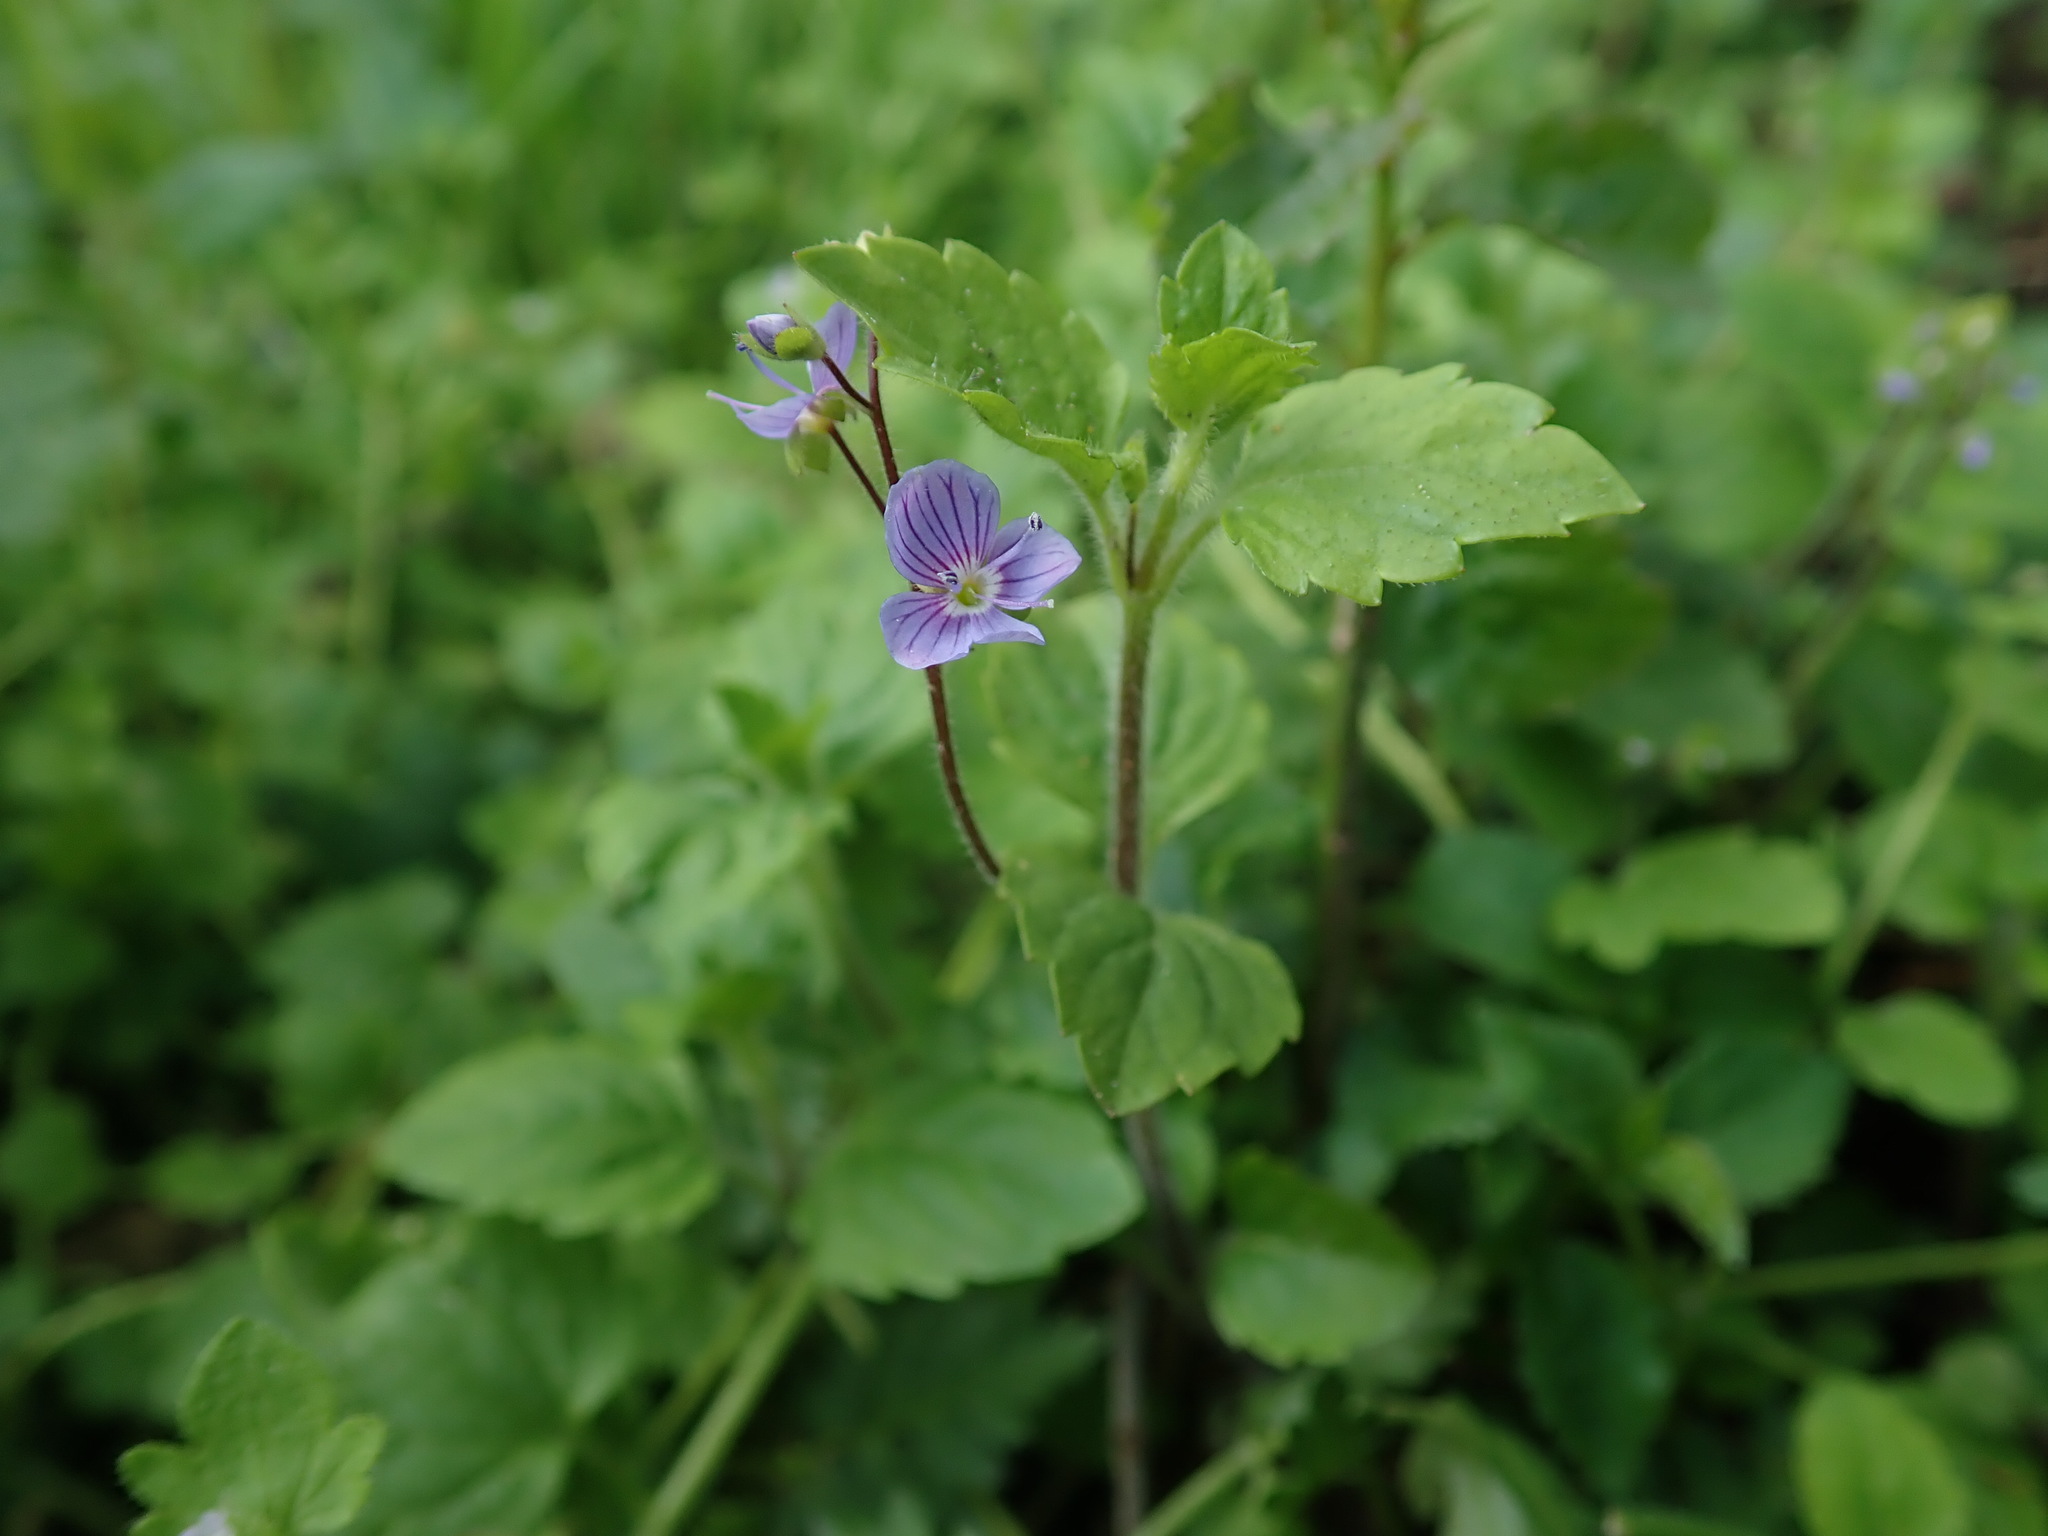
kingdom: Plantae
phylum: Tracheophyta
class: Magnoliopsida
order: Lamiales
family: Plantaginaceae
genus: Veronica
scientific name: Veronica montana
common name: Wood speedwell
